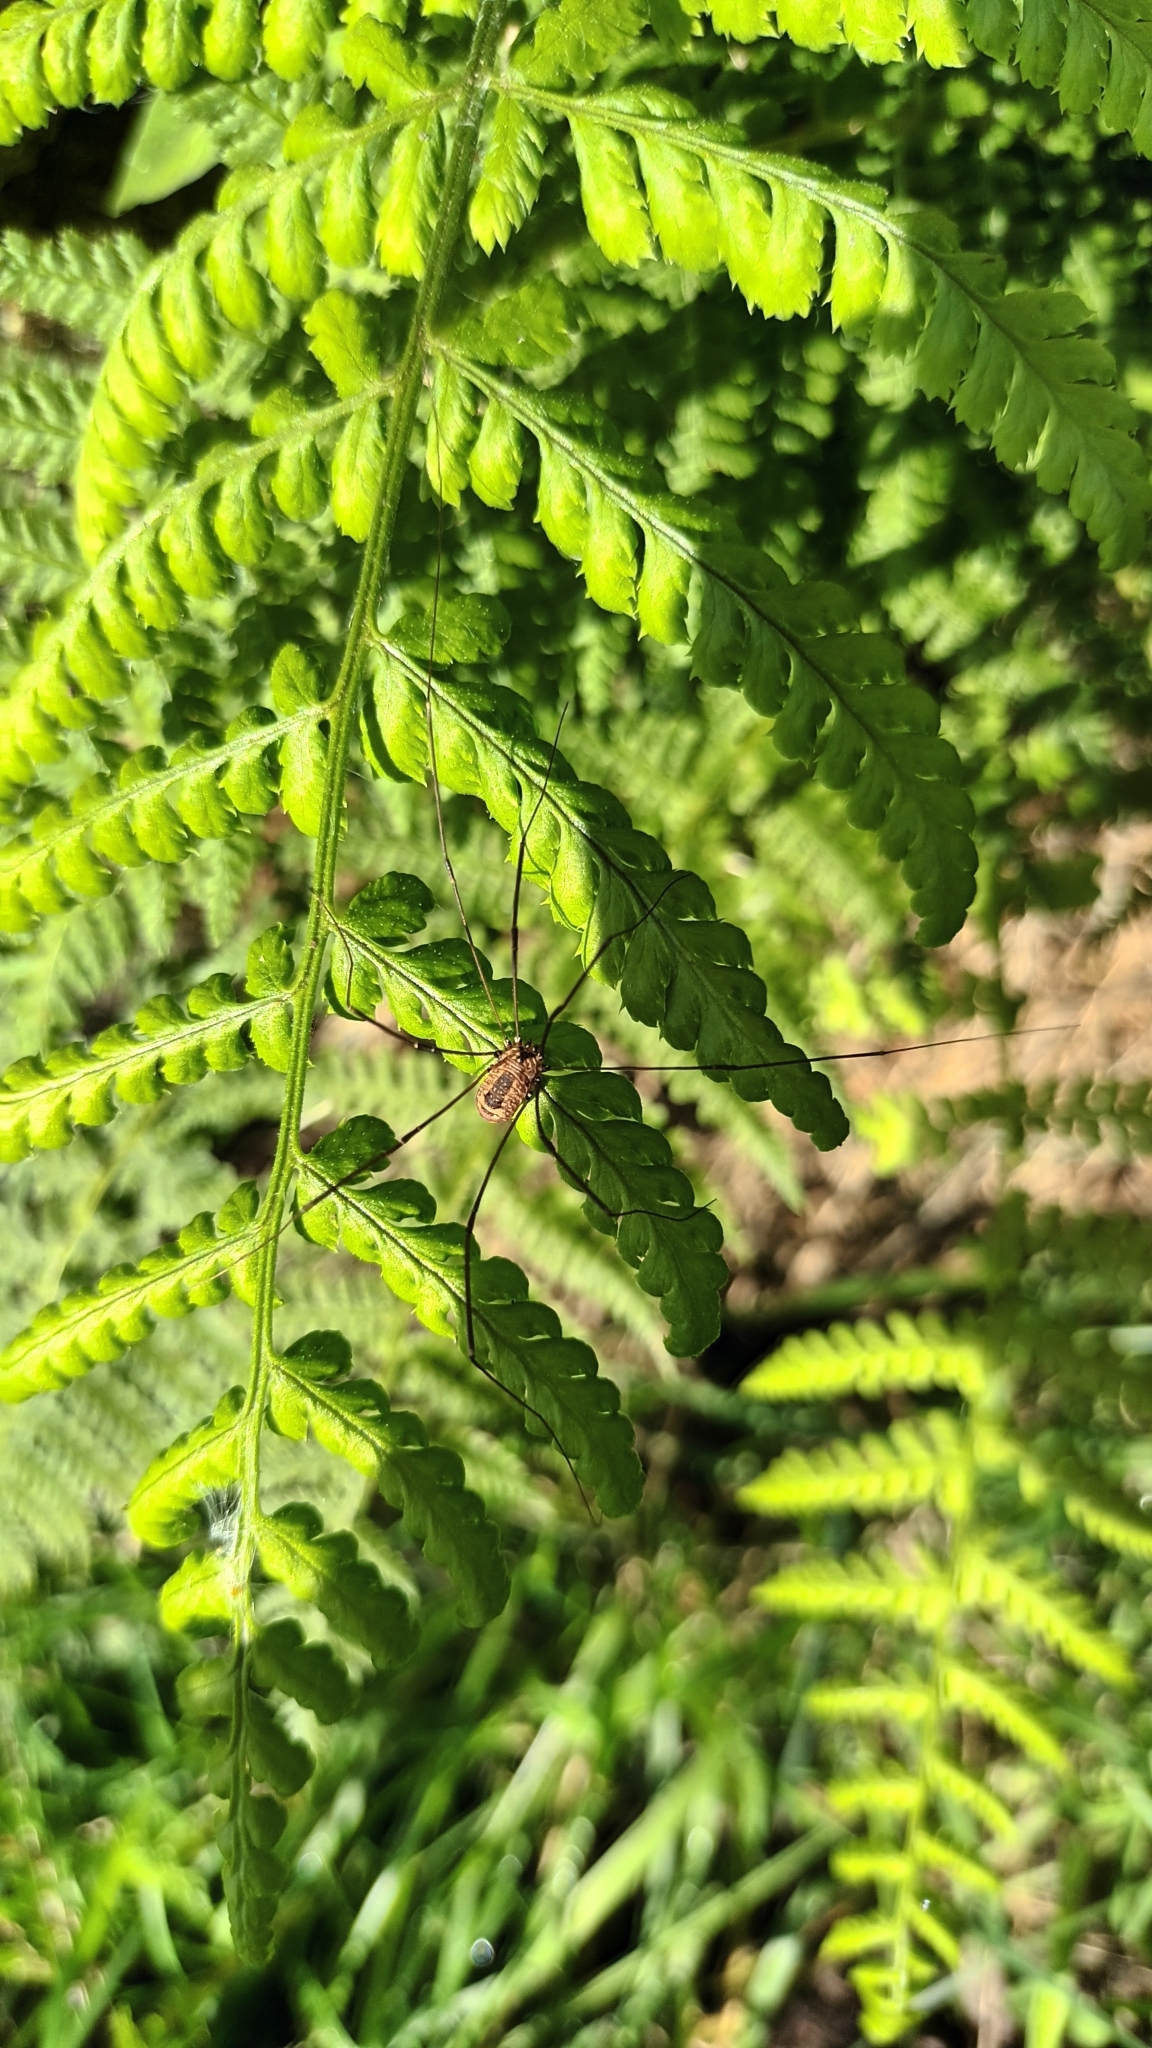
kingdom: Animalia
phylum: Arthropoda
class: Arachnida
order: Opiliones
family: Sclerosomatidae
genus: Leiobunum
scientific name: Leiobunum rotundum
